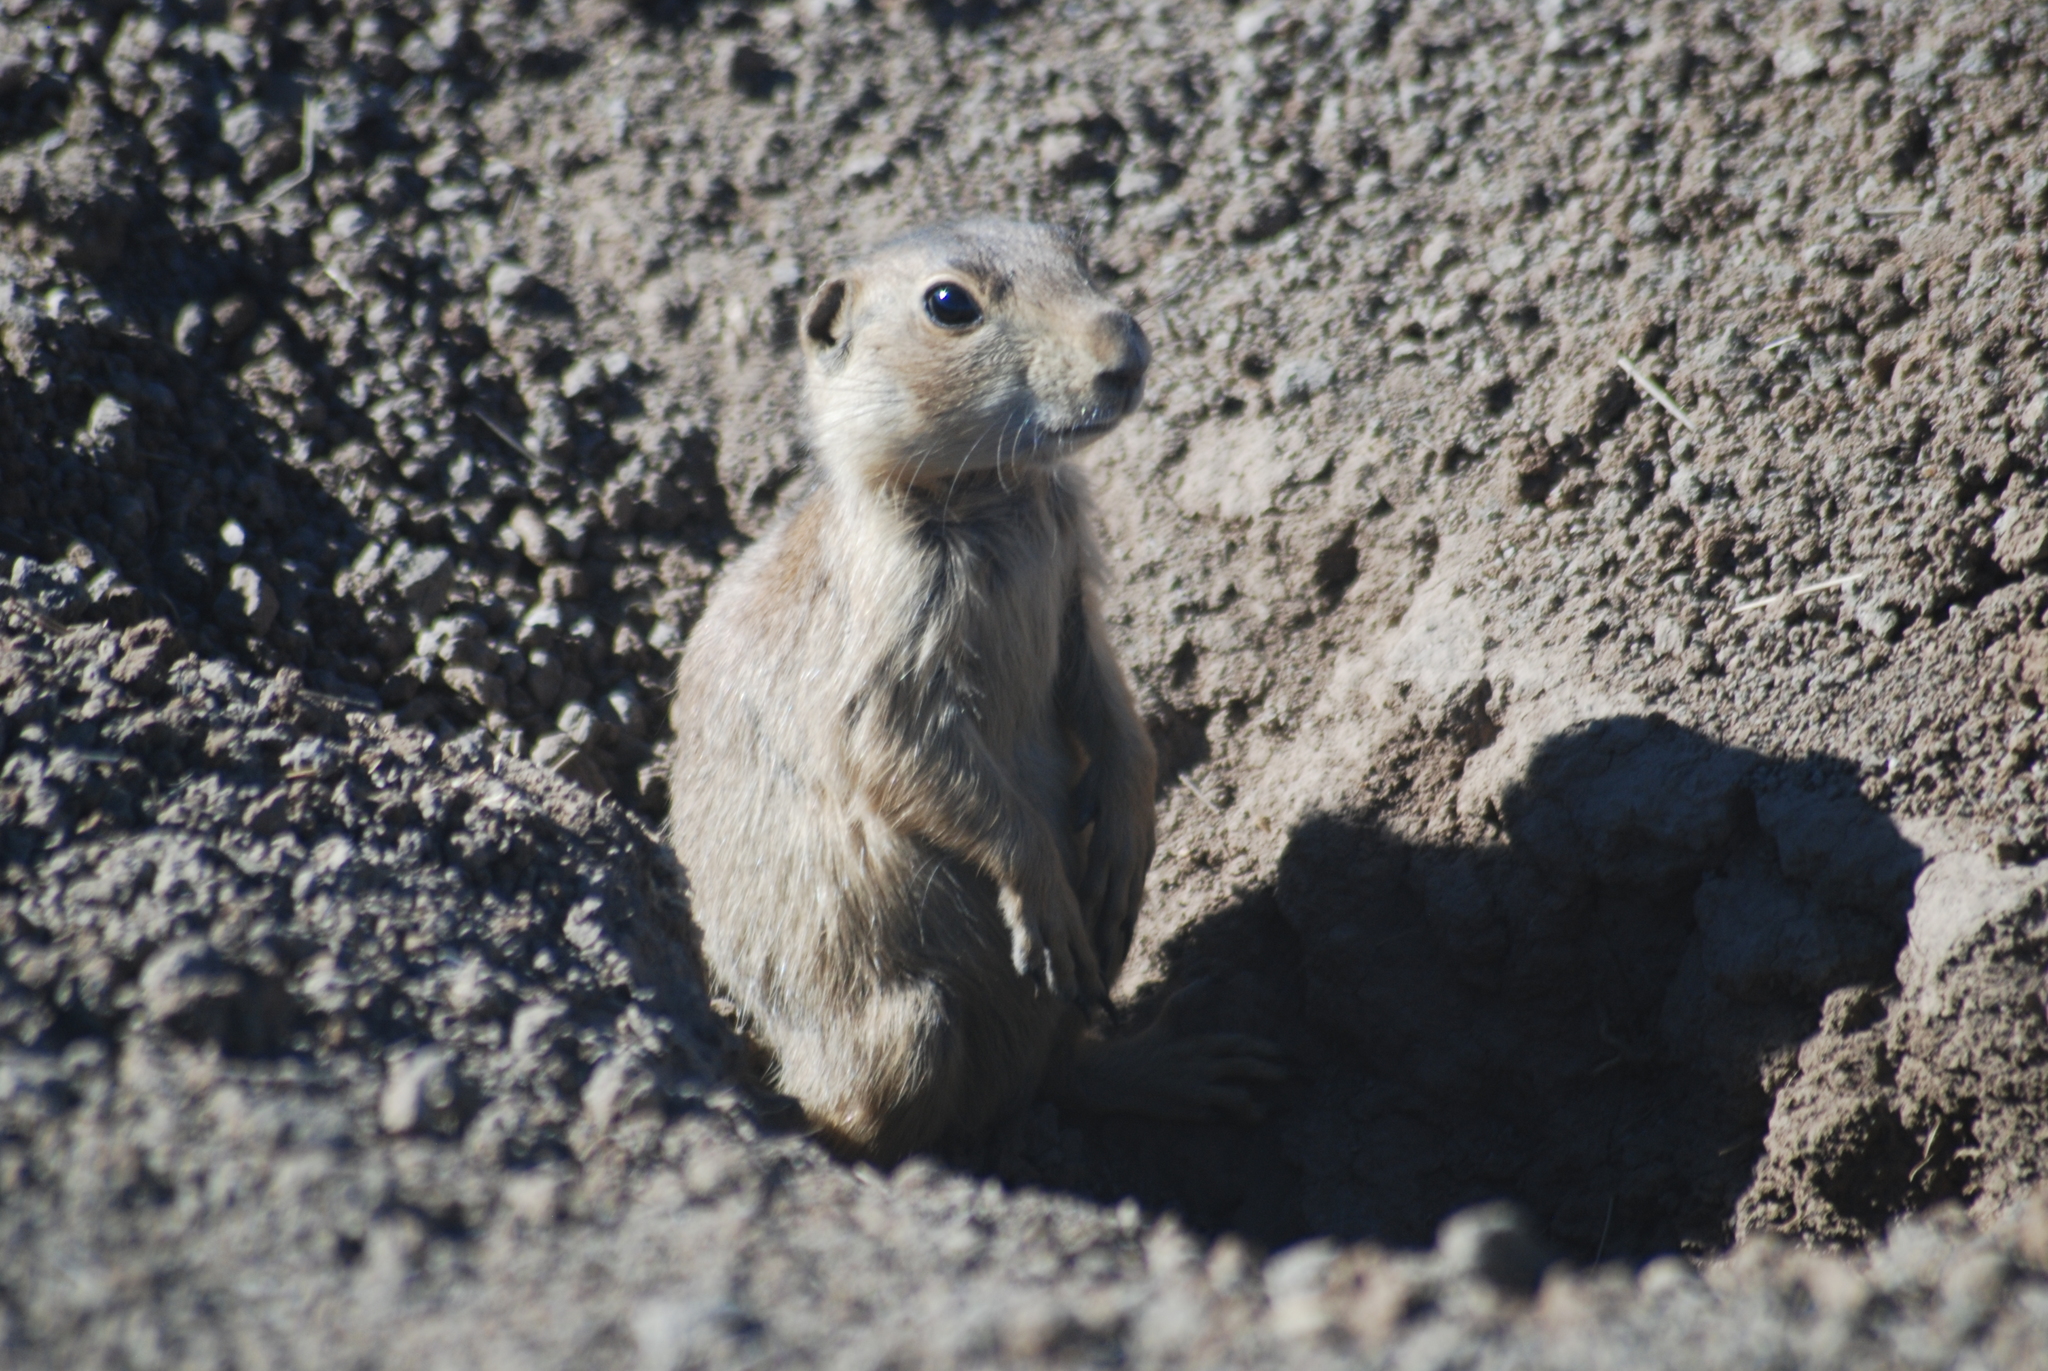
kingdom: Animalia
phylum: Chordata
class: Mammalia
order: Rodentia
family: Sciuridae
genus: Cynomys
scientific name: Cynomys gunnisoni
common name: Gunnison's prairie dog
